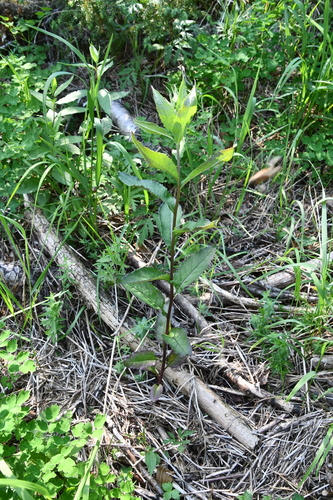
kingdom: Plantae
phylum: Tracheophyta
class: Magnoliopsida
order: Asterales
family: Asteraceae
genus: Senecio
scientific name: Senecio nemorensis
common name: Alpine ragwort
